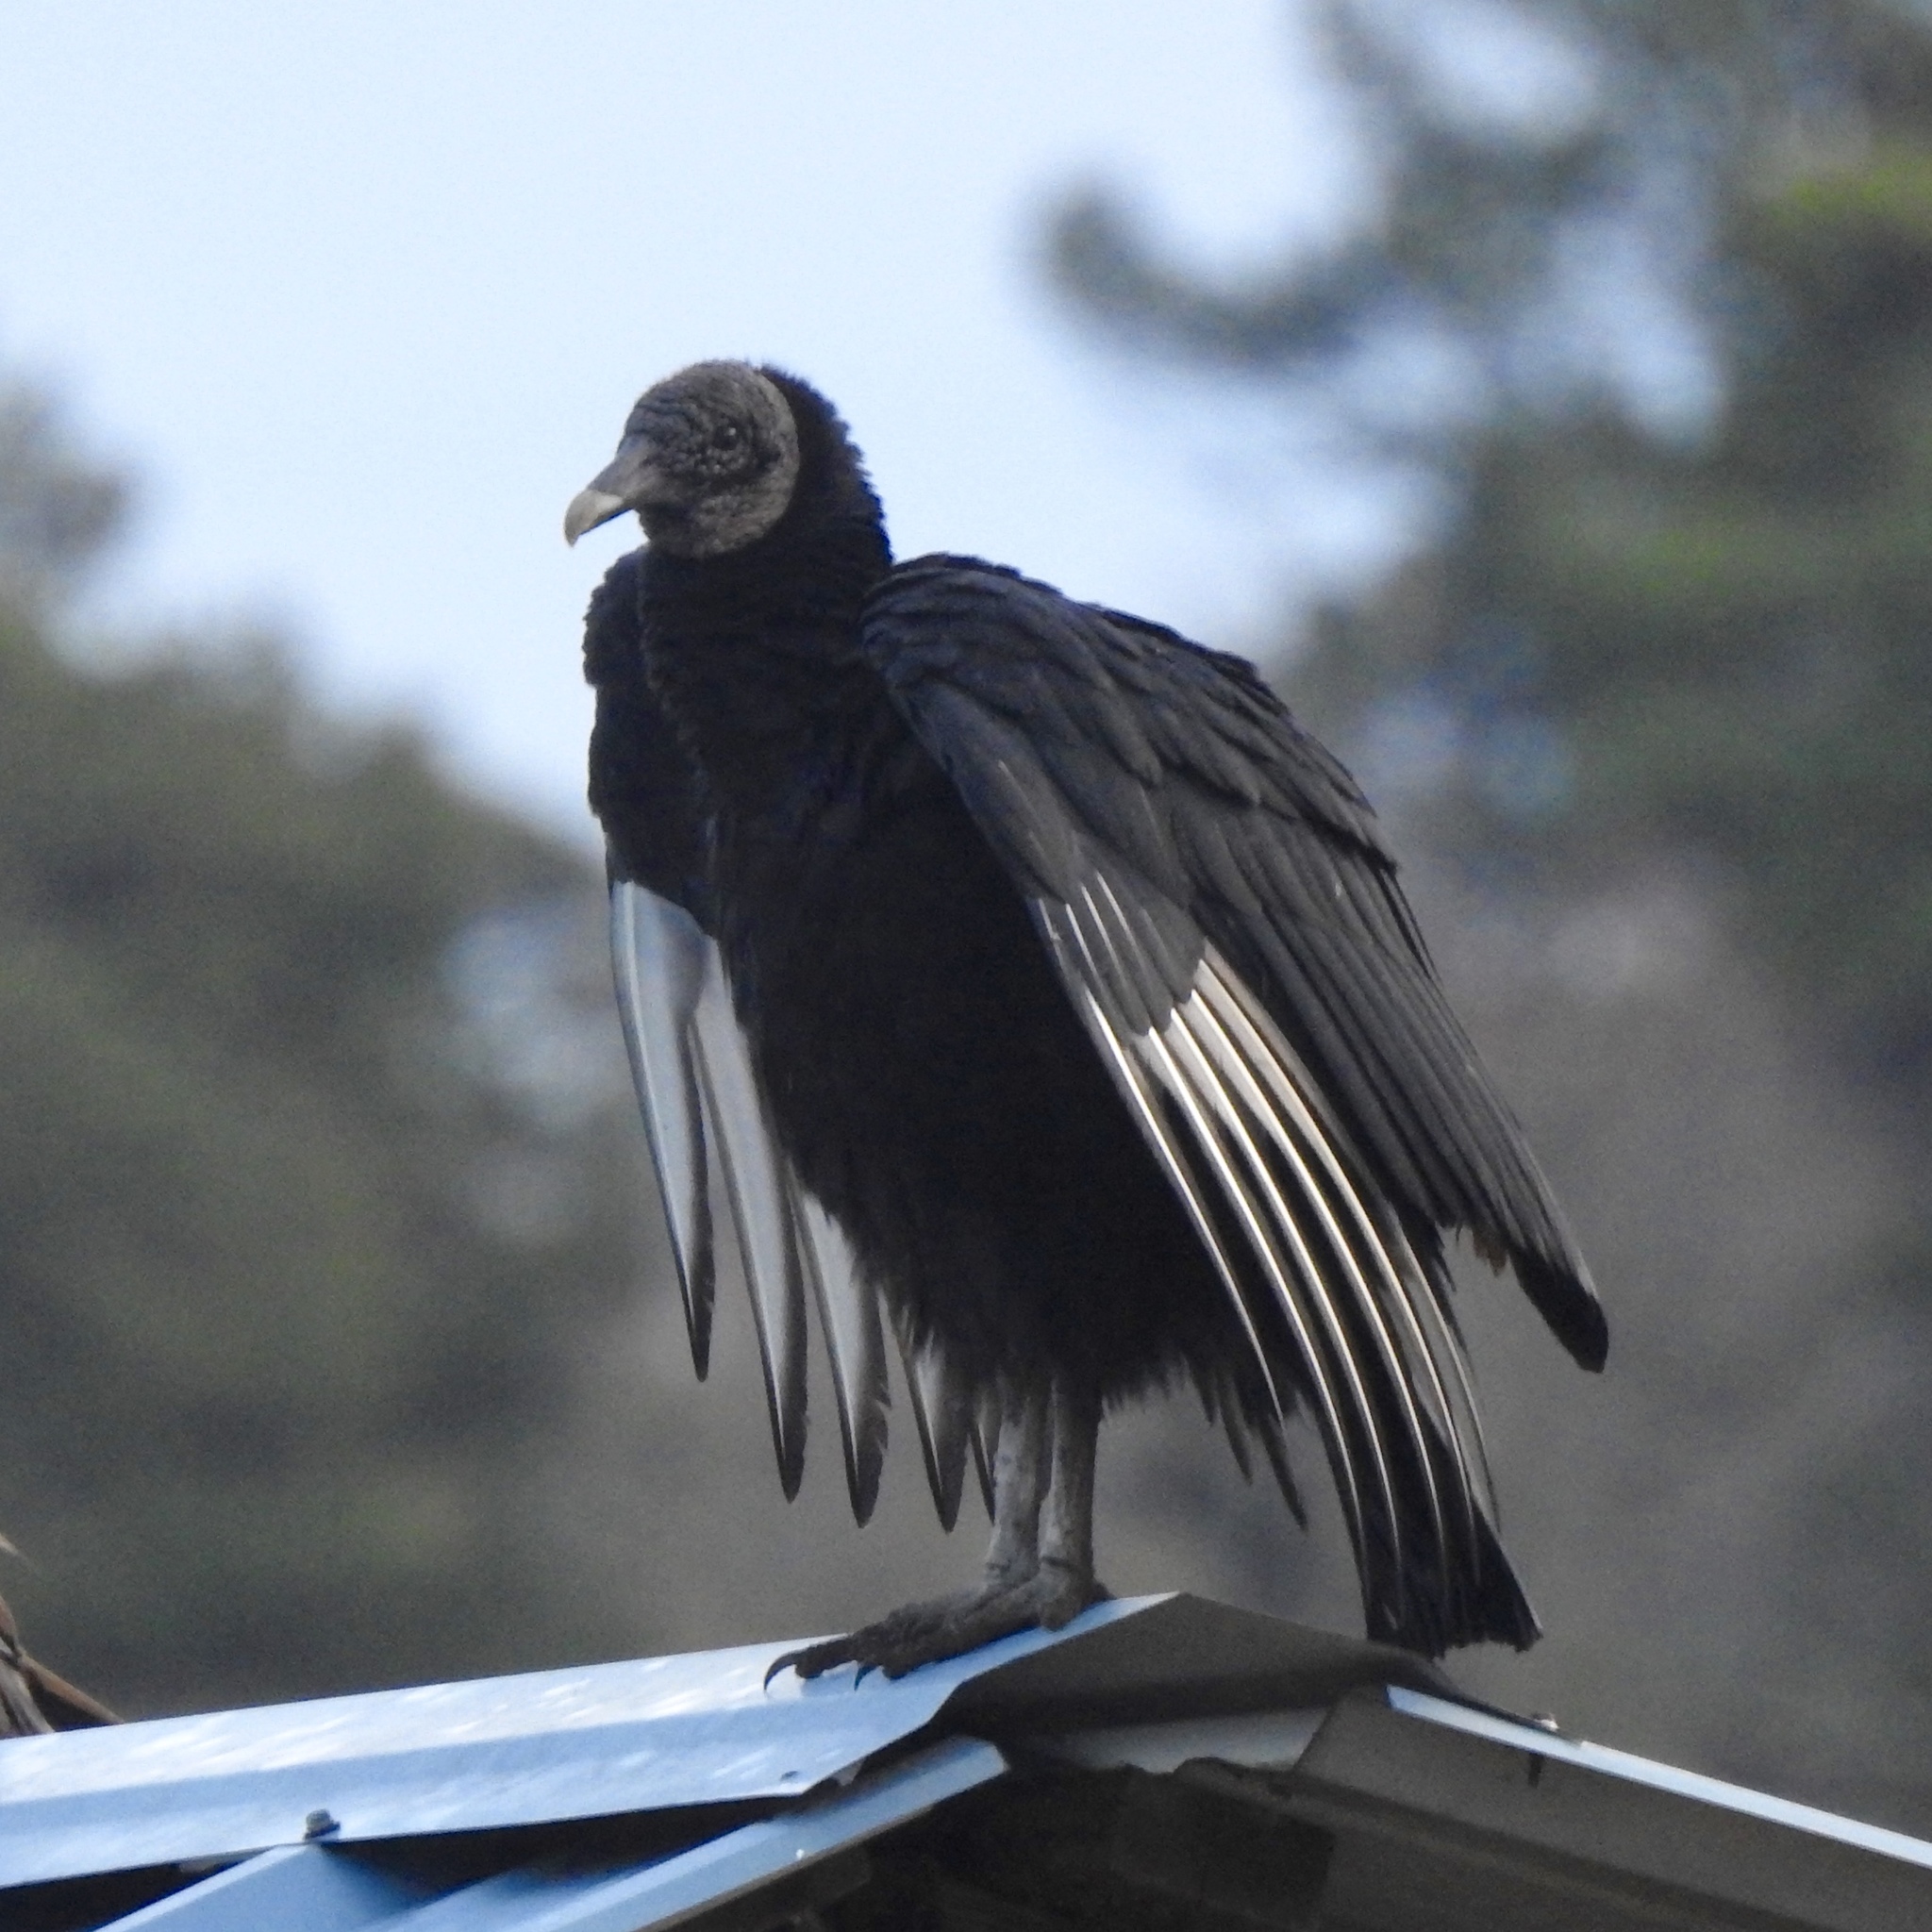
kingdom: Animalia
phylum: Chordata
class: Aves
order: Accipitriformes
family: Cathartidae
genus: Coragyps
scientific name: Coragyps atratus
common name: Black vulture
